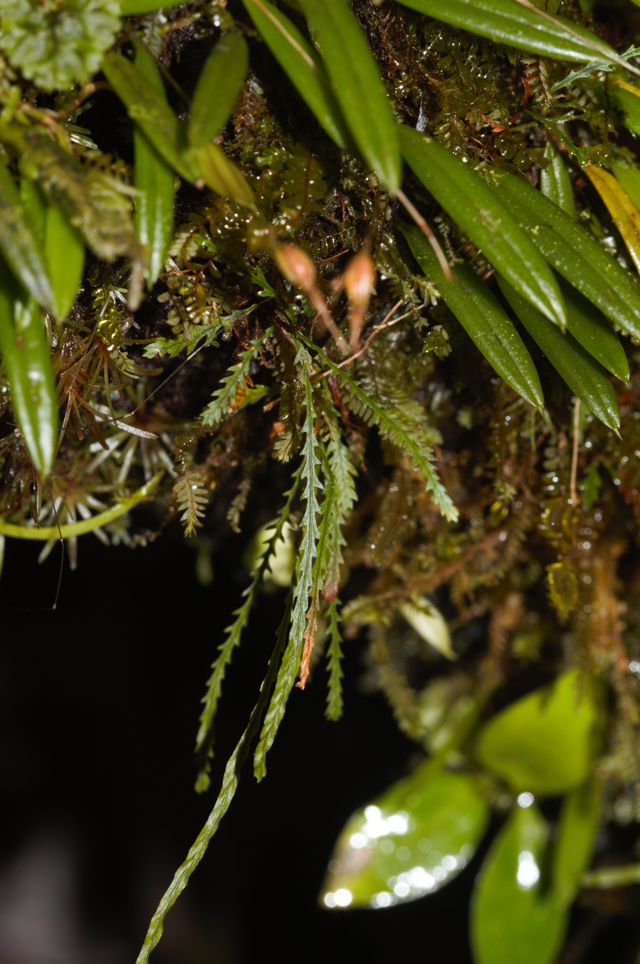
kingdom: Plantae
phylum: Tracheophyta
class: Polypodiopsida
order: Polypodiales
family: Polypodiaceae
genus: Cochlidium
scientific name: Cochlidium serrulatum
